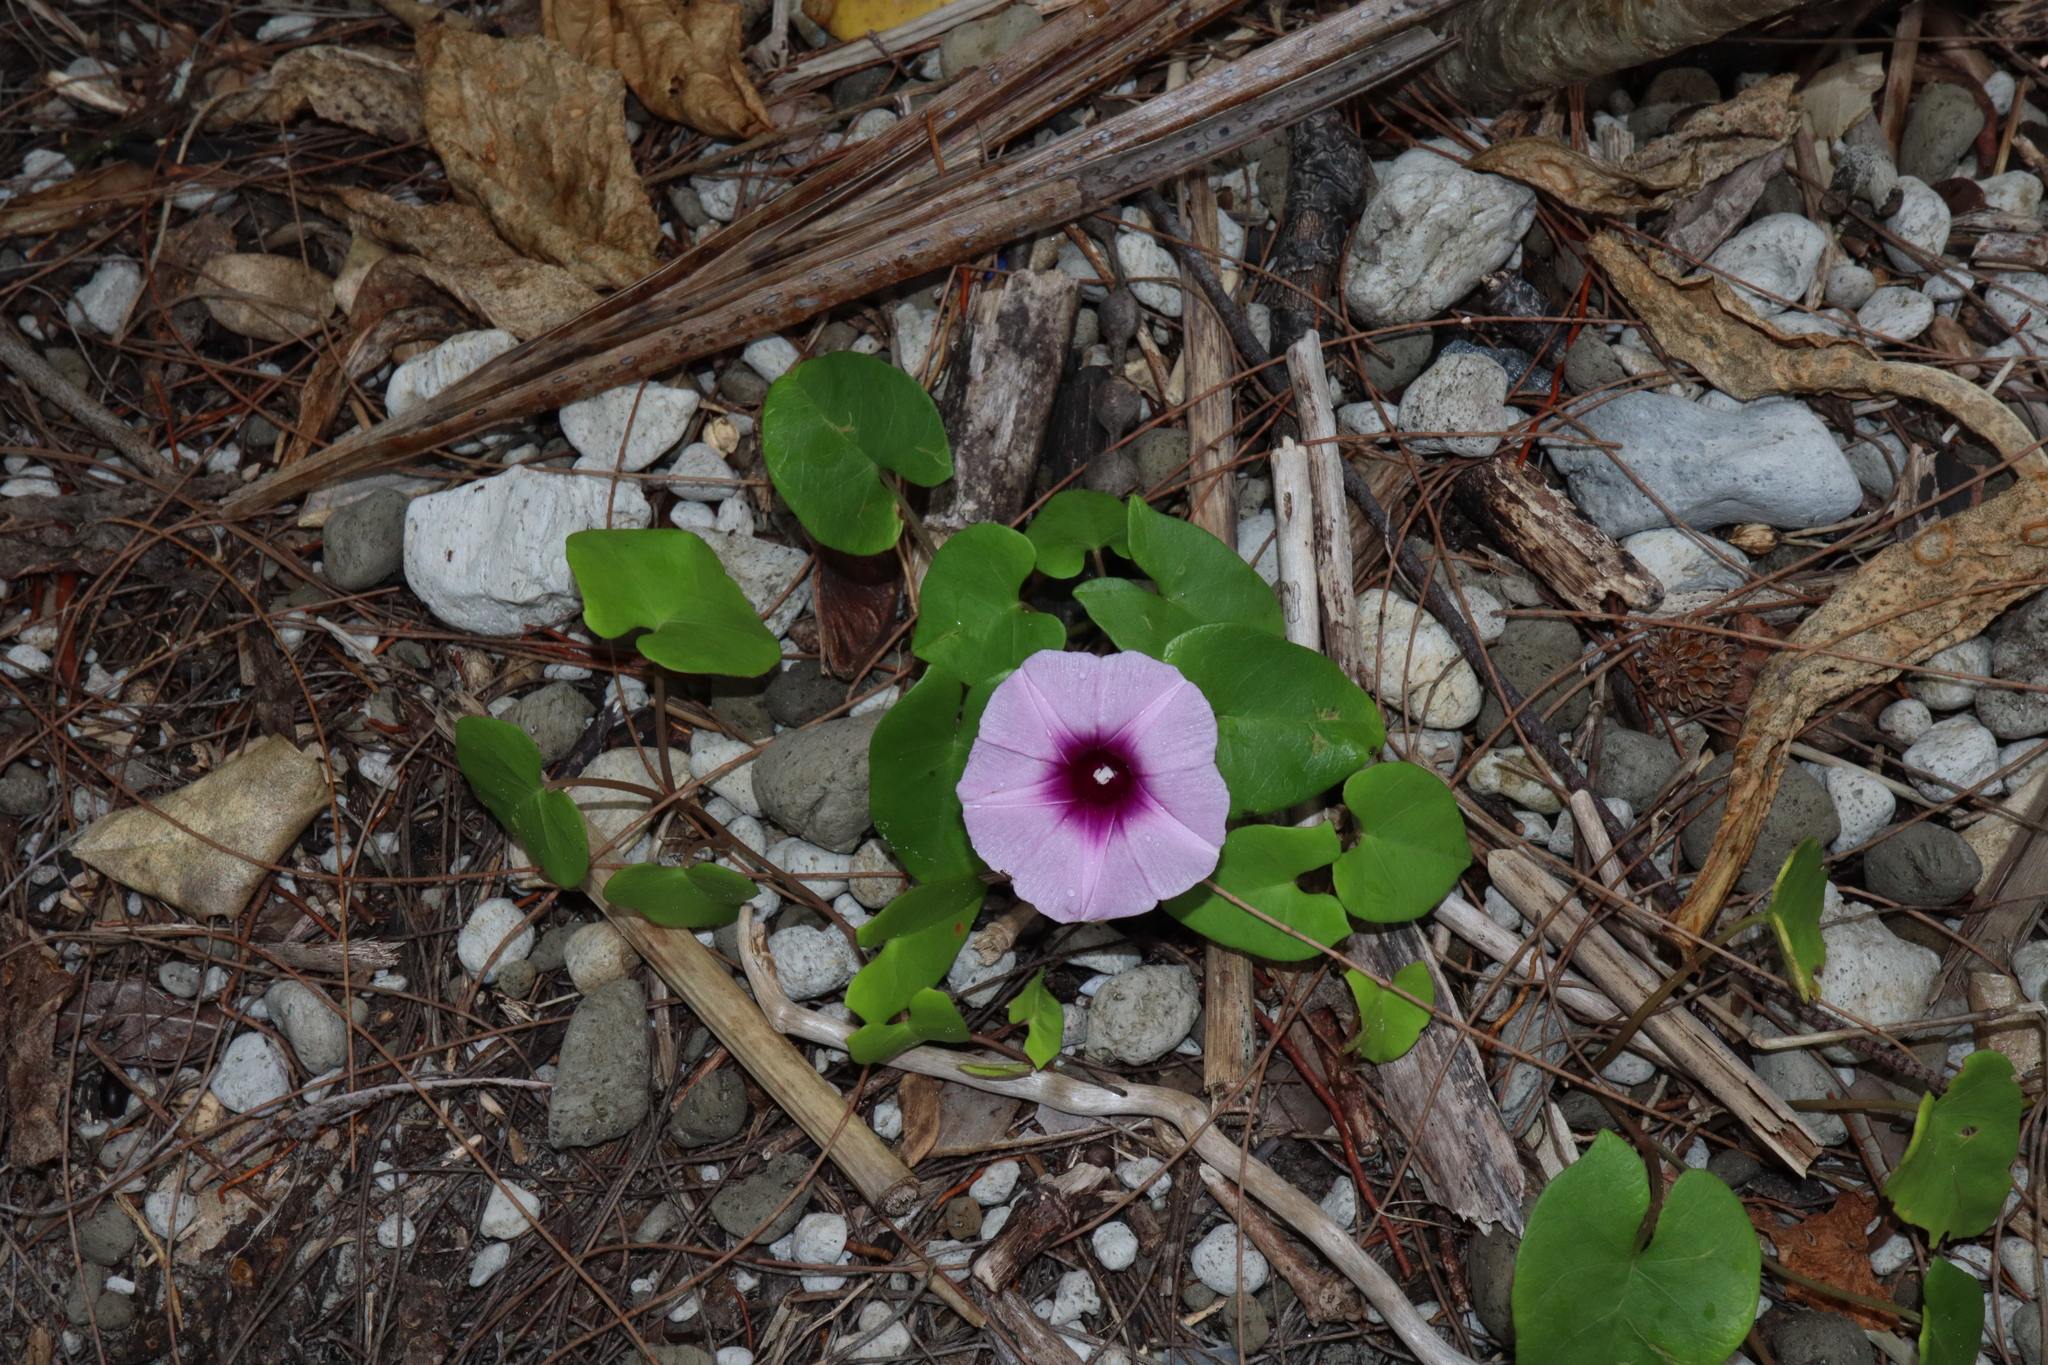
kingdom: Plantae
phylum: Tracheophyta
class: Magnoliopsida
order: Solanales
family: Convolvulaceae
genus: Ipomoea
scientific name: Ipomoea littoralis
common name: Coastal morning glory
